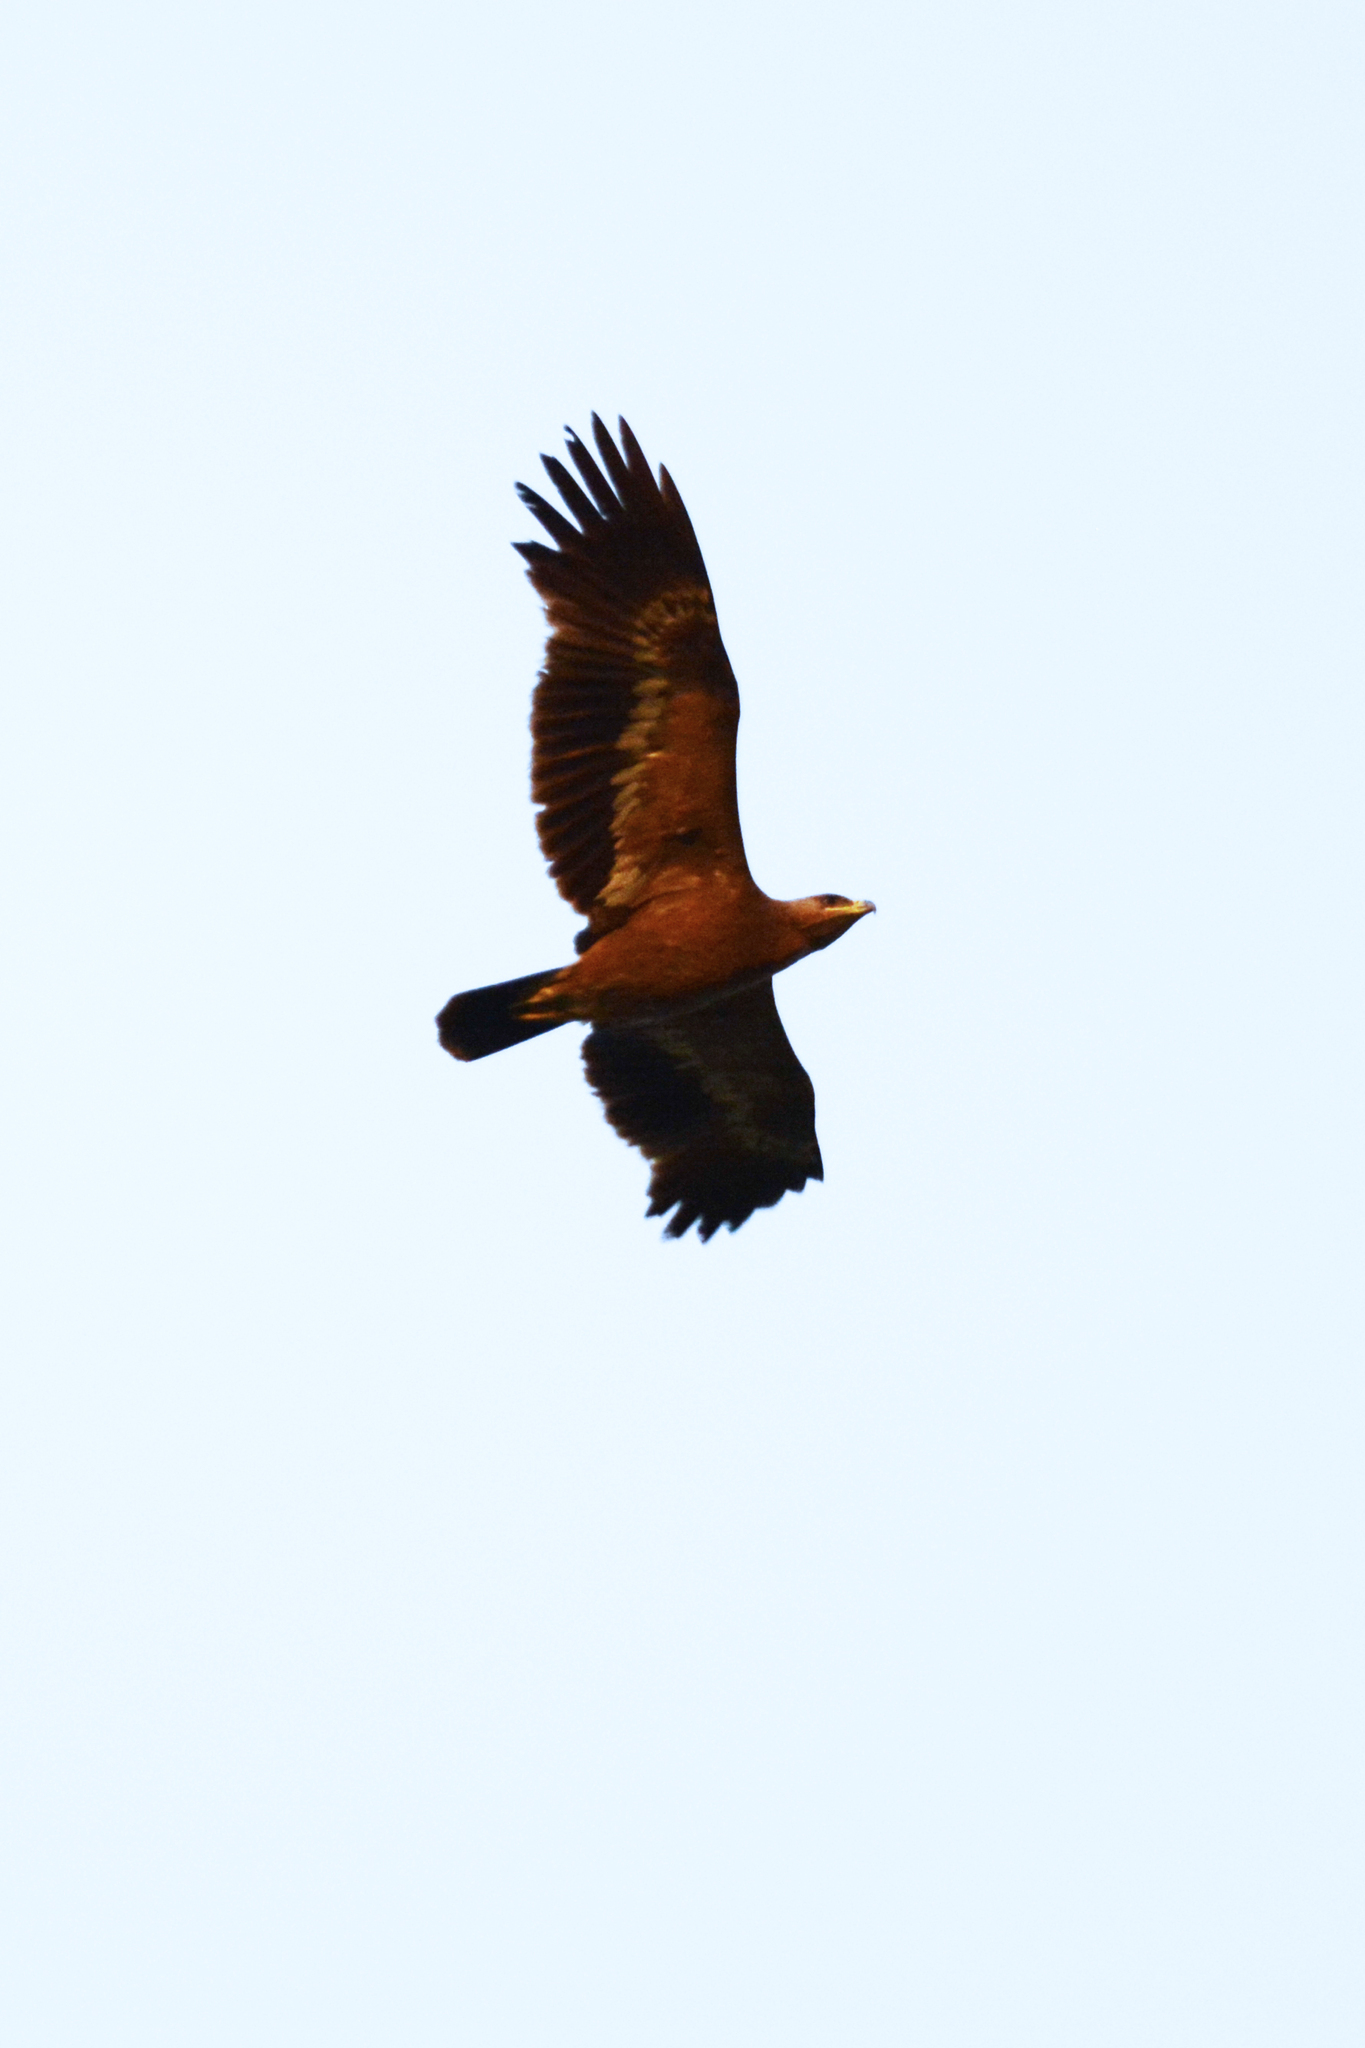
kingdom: Animalia
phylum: Chordata
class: Aves
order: Accipitriformes
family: Accipitridae
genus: Aquila
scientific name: Aquila nipalensis
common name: Steppe eagle
